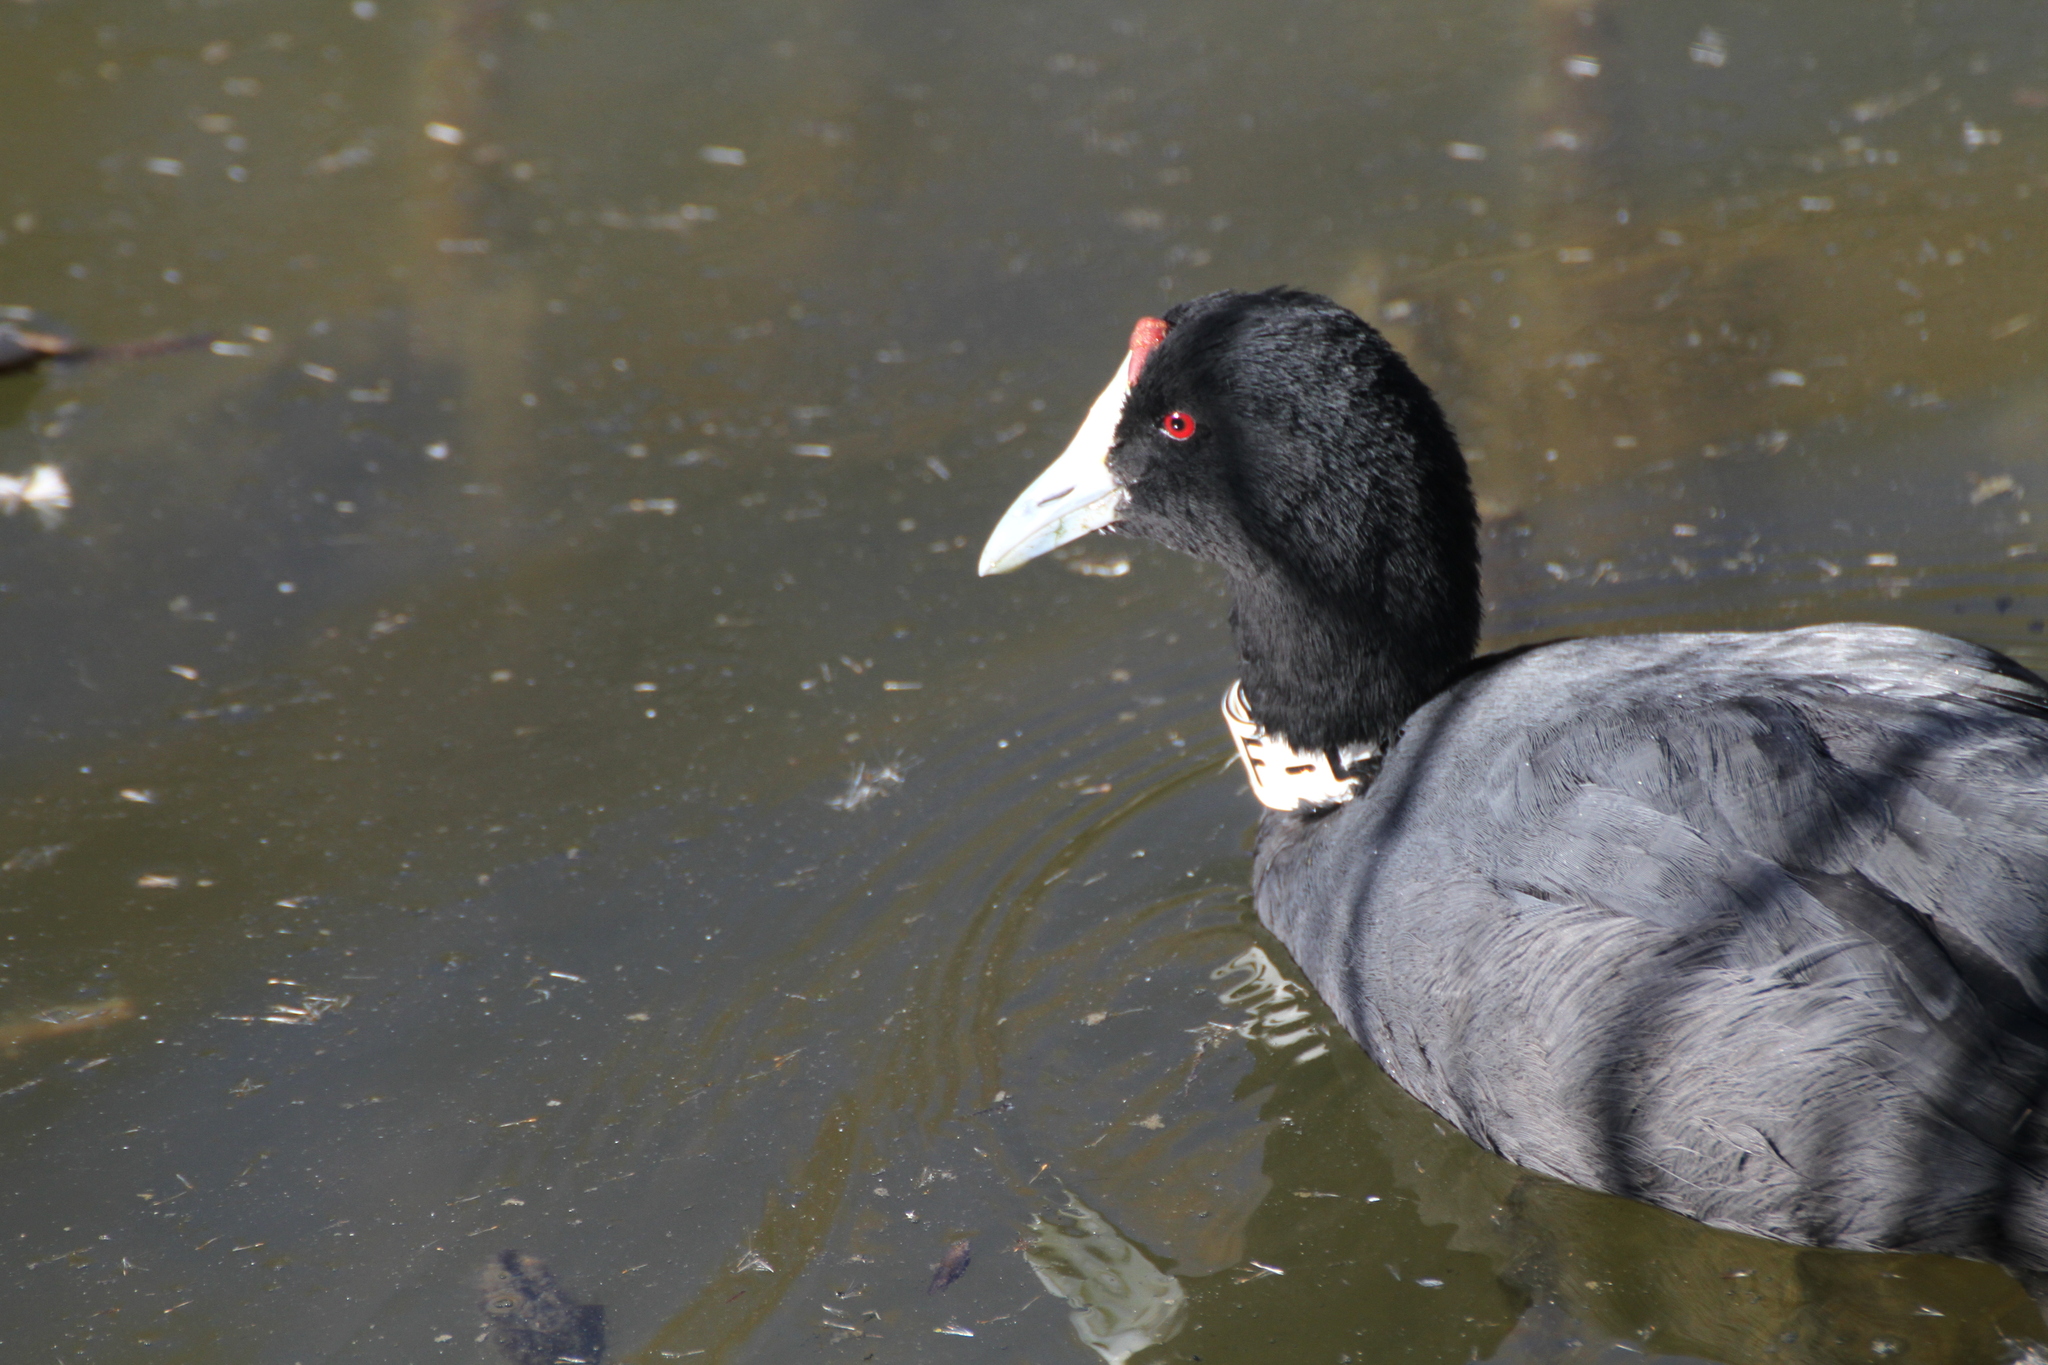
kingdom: Animalia
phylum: Chordata
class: Aves
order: Gruiformes
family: Rallidae
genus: Fulica
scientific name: Fulica cristata
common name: Red-knobbed coot
